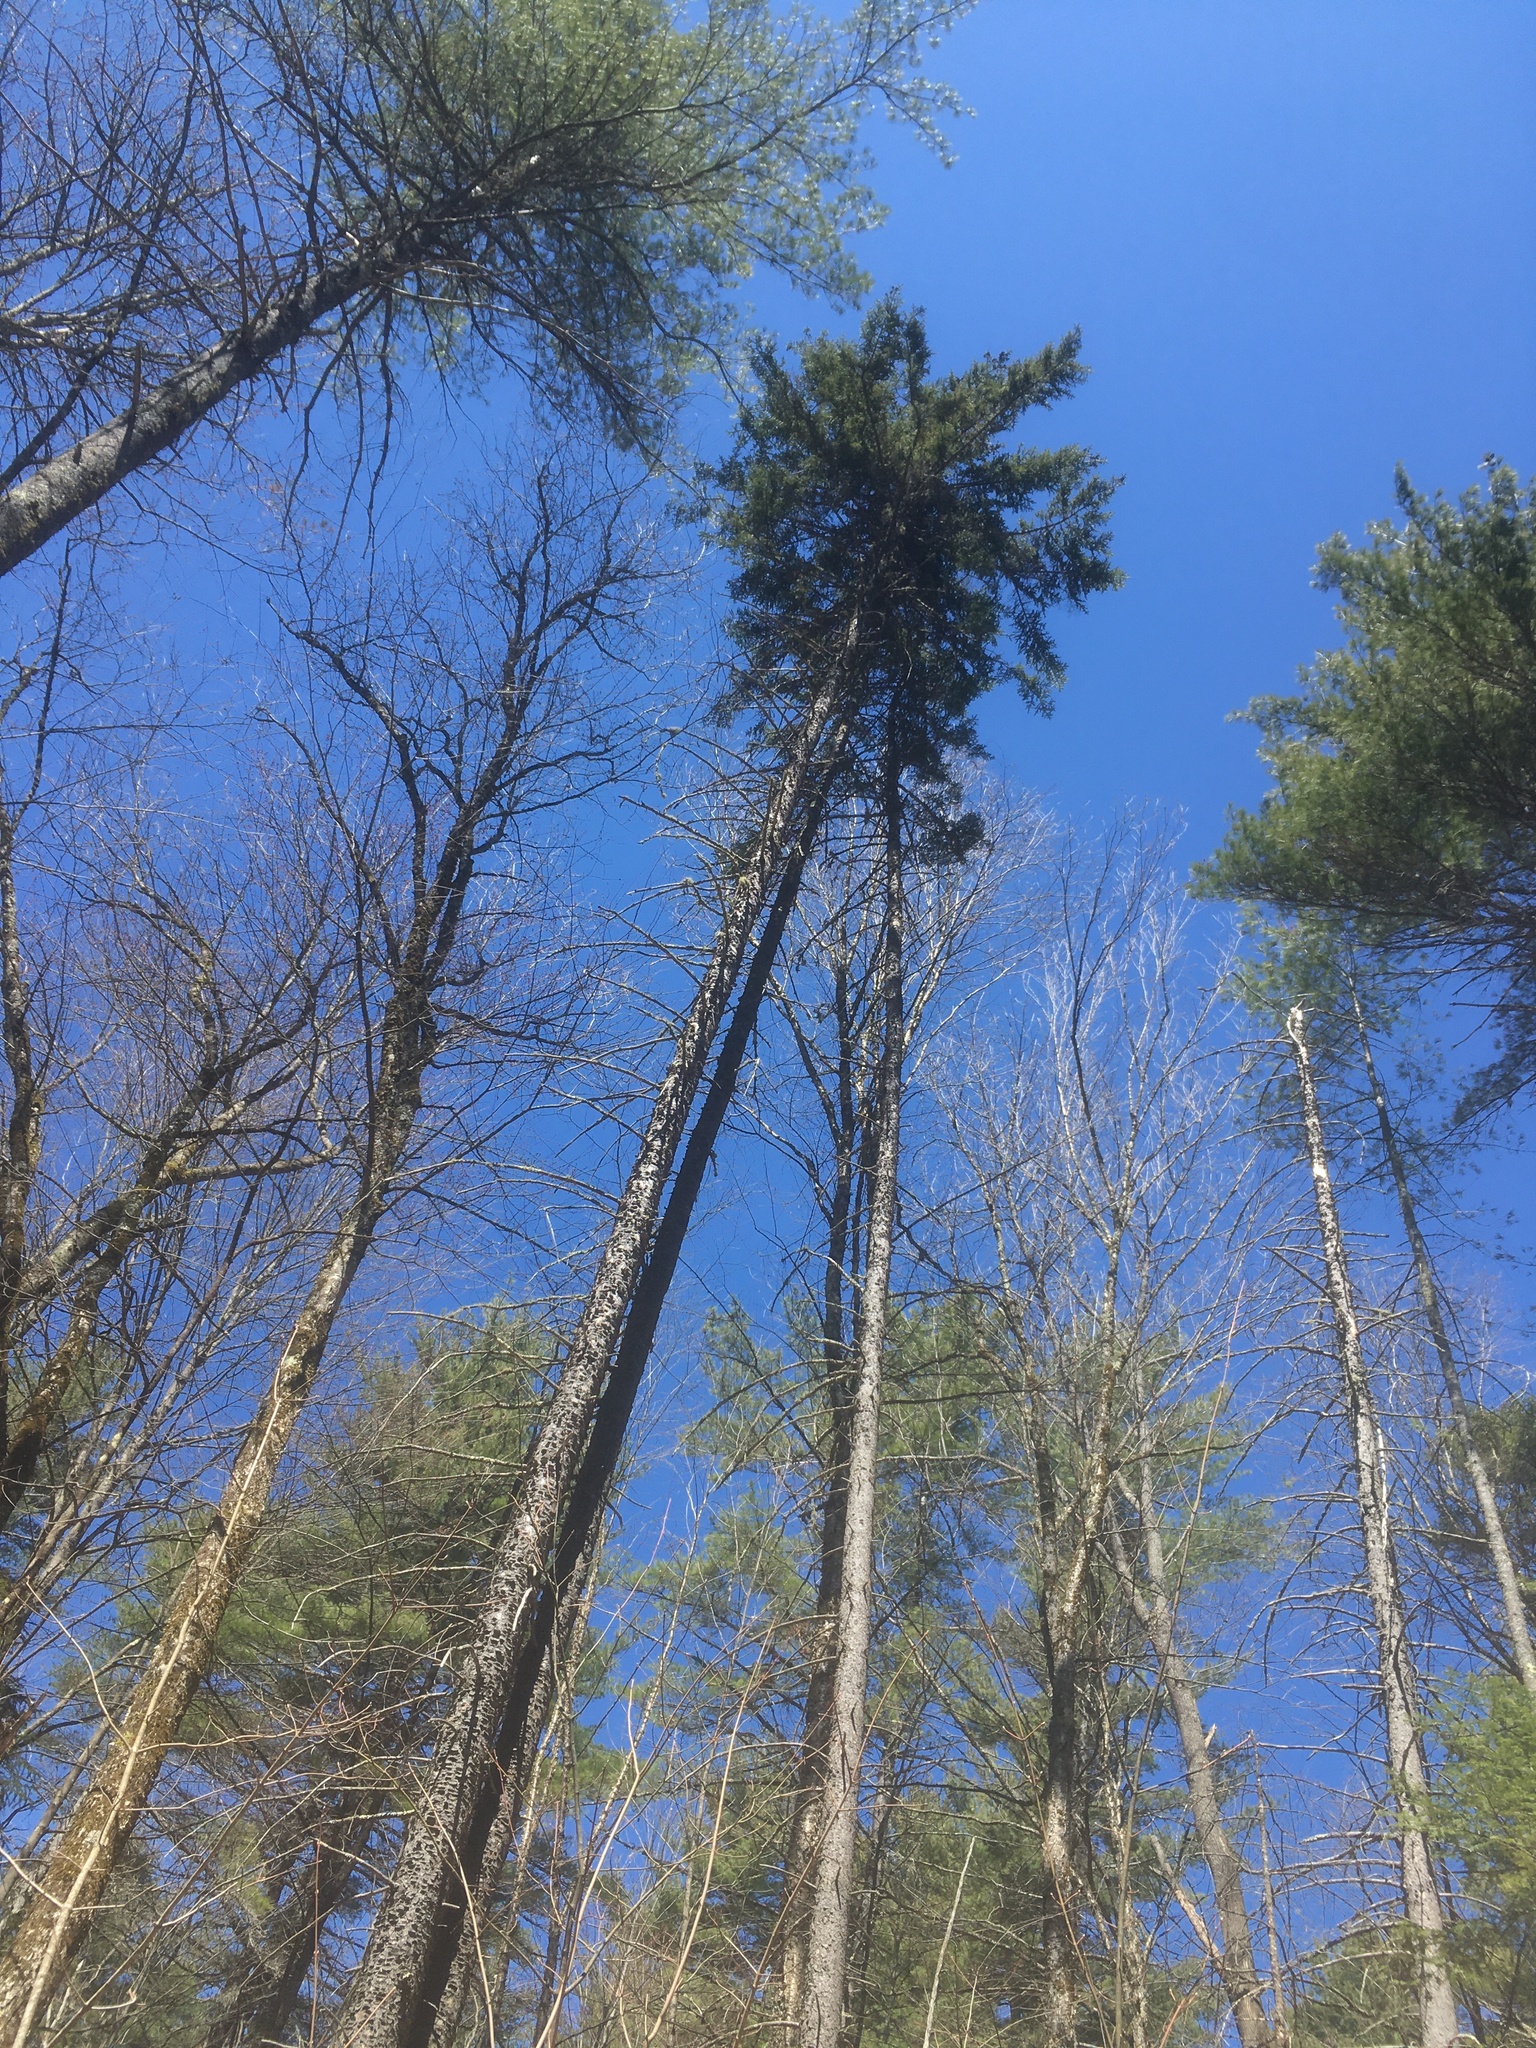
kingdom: Plantae
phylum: Tracheophyta
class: Pinopsida
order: Pinales
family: Pinaceae
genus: Pinus
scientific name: Pinus strobus
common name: Weymouth pine
